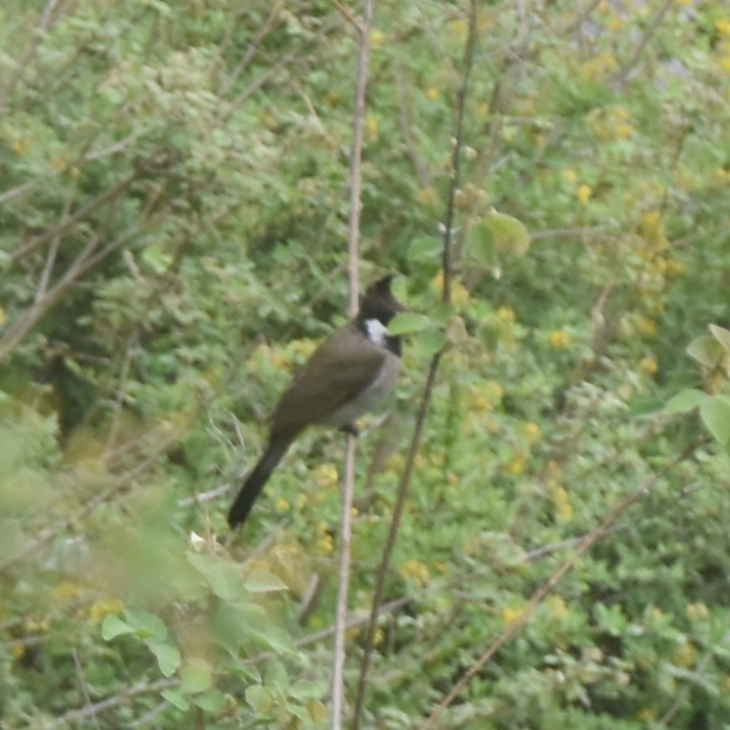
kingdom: Animalia
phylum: Chordata
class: Aves
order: Passeriformes
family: Pycnonotidae
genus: Pycnonotus
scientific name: Pycnonotus leucogenys
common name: Himalayan bulbul
